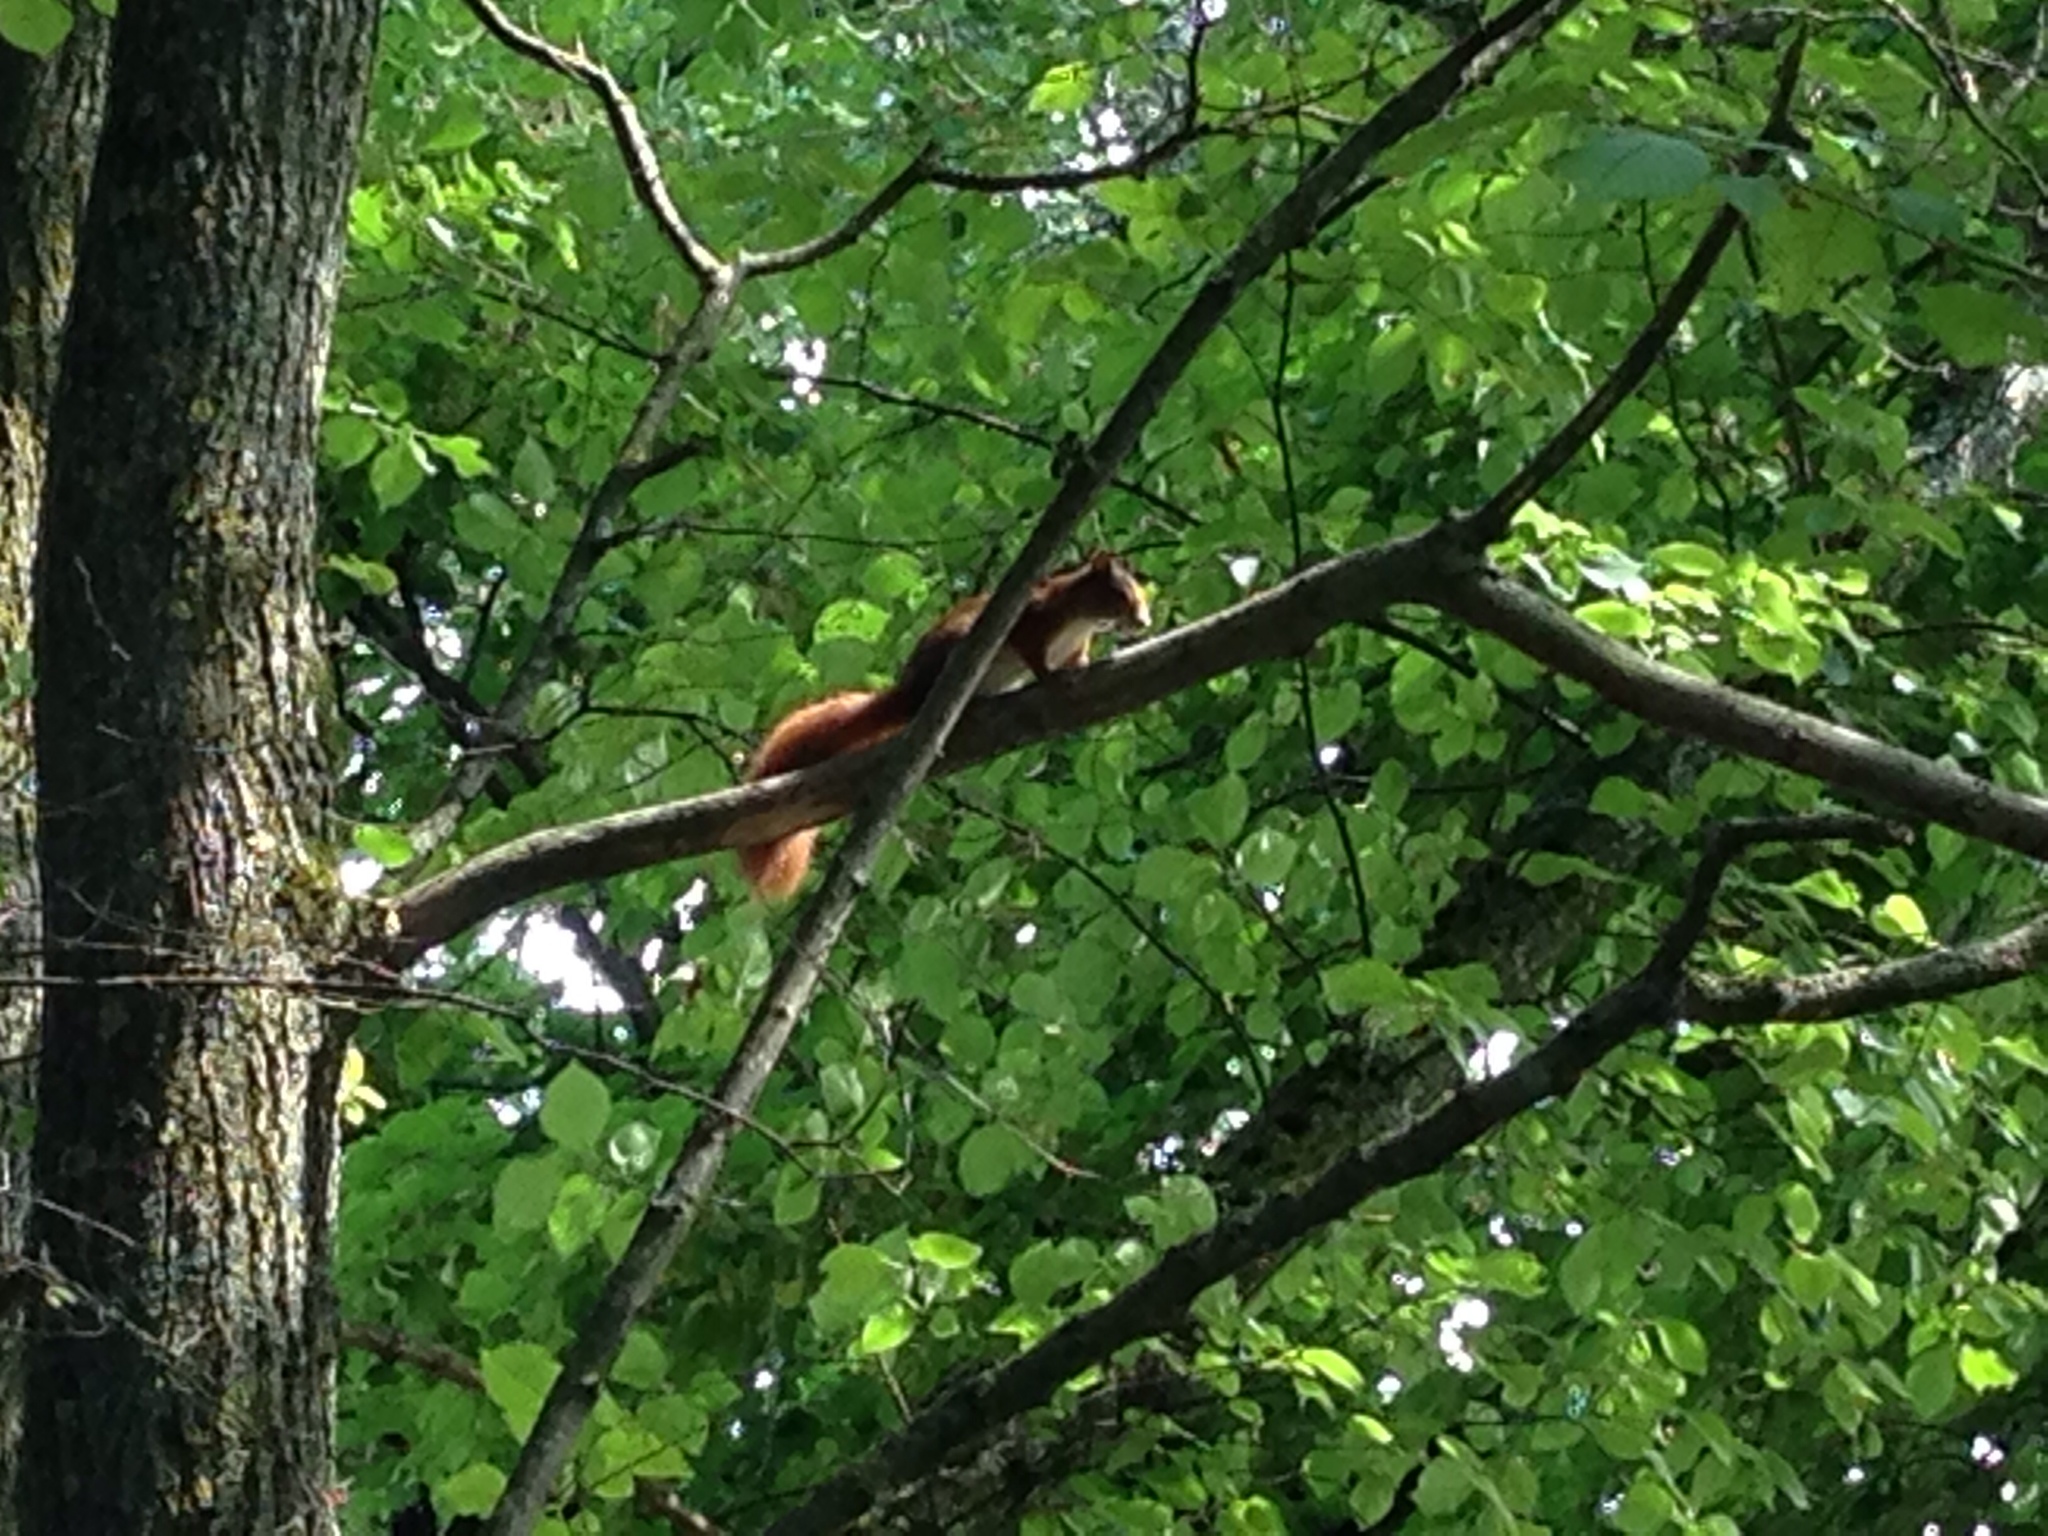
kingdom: Animalia
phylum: Chordata
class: Mammalia
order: Rodentia
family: Sciuridae
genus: Sciurus
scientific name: Sciurus vulgaris
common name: Eurasian red squirrel
